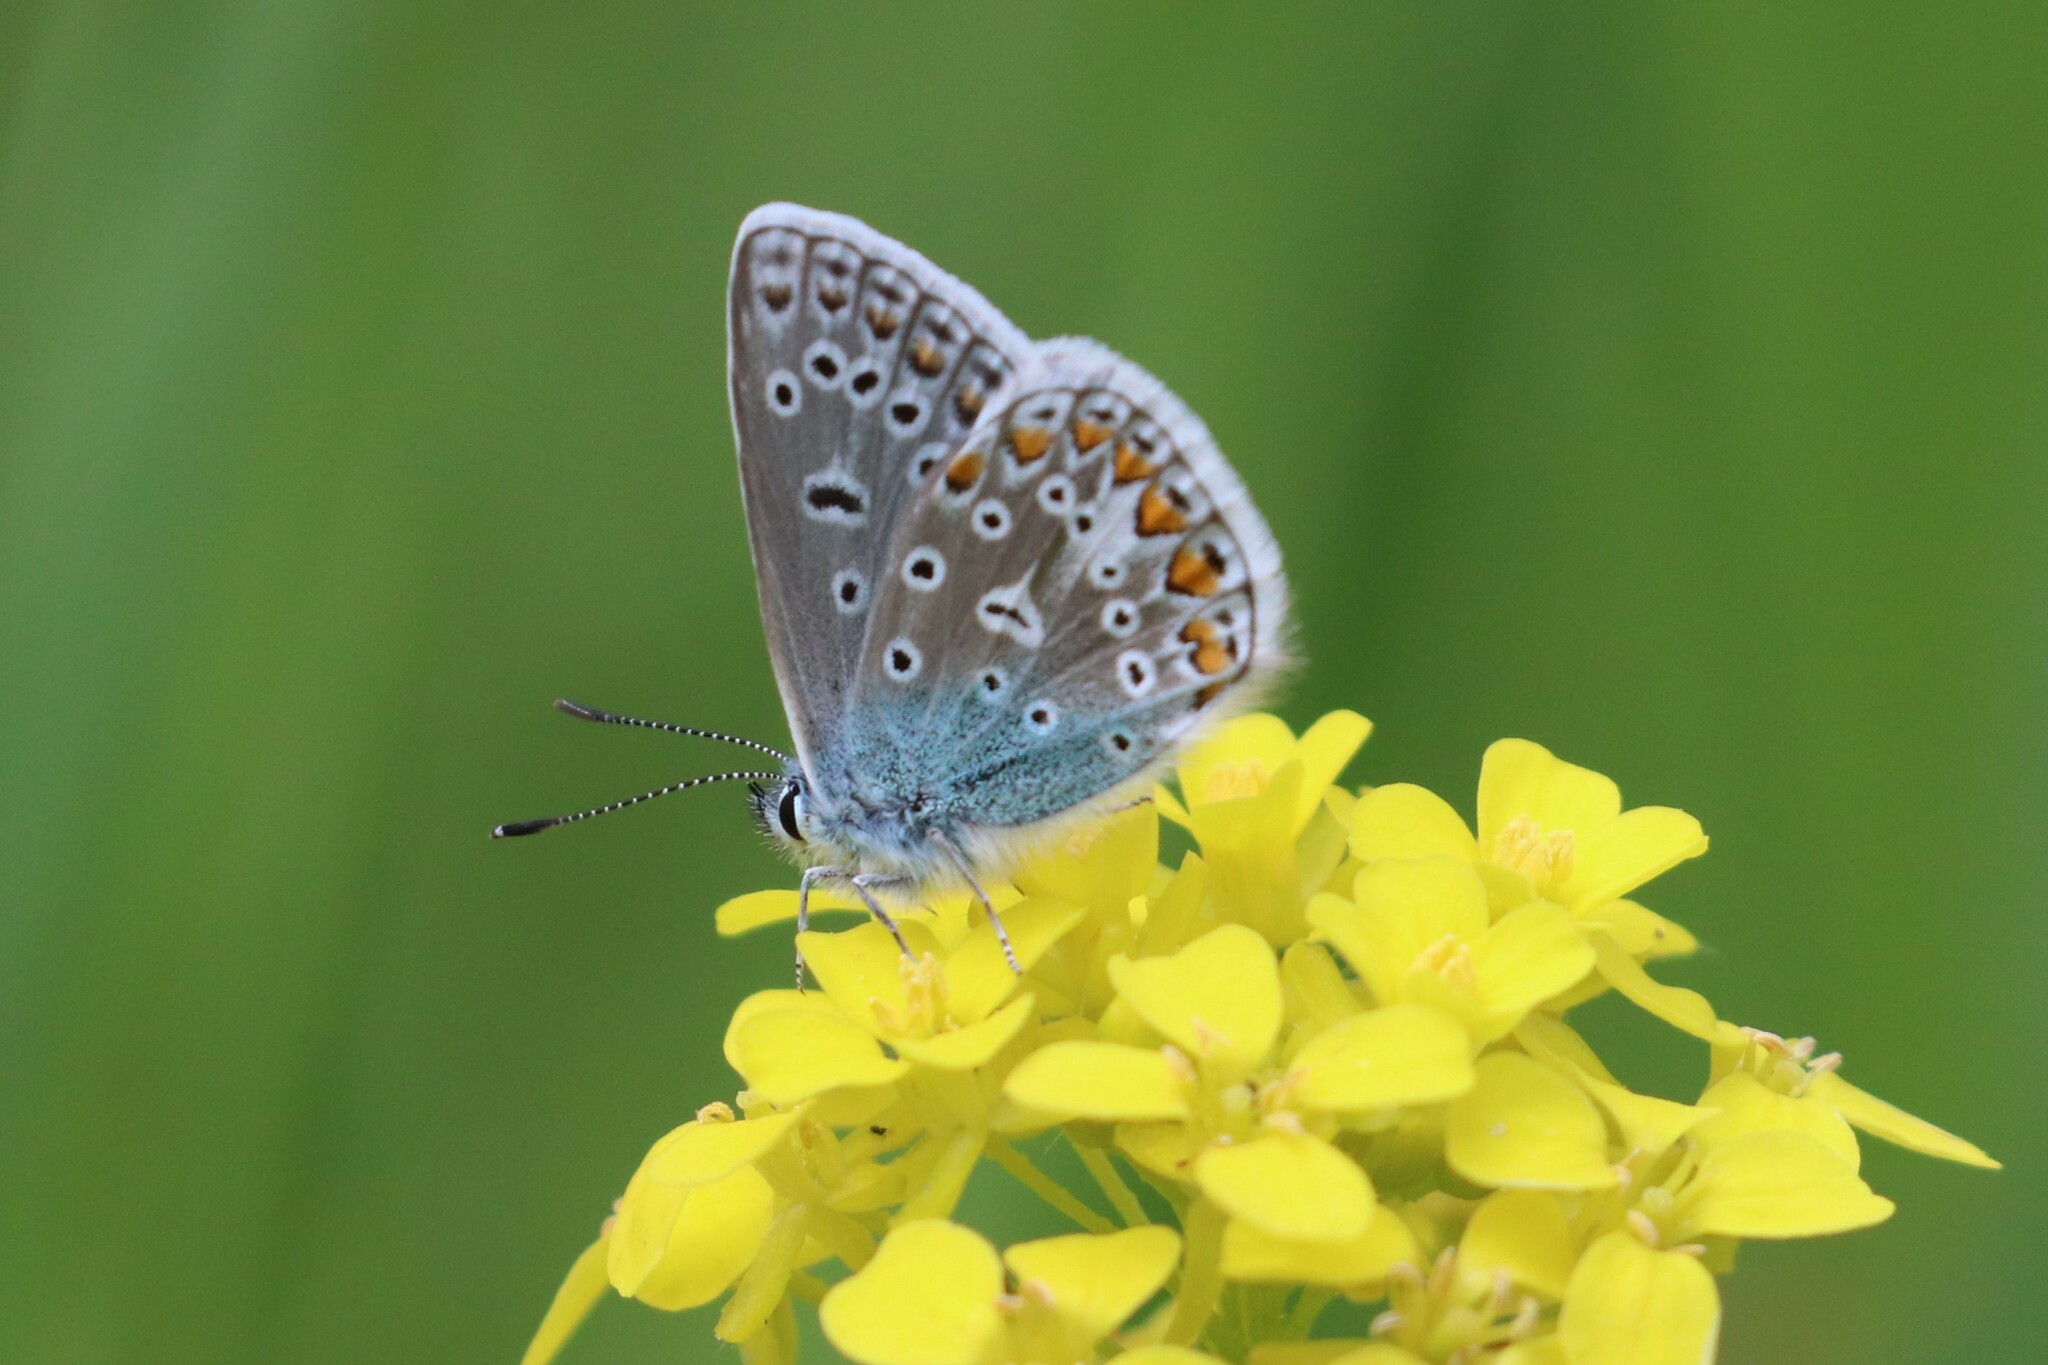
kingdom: Animalia
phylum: Arthropoda
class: Insecta
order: Lepidoptera
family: Lycaenidae
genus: Polyommatus
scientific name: Polyommatus icarus
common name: Common blue
